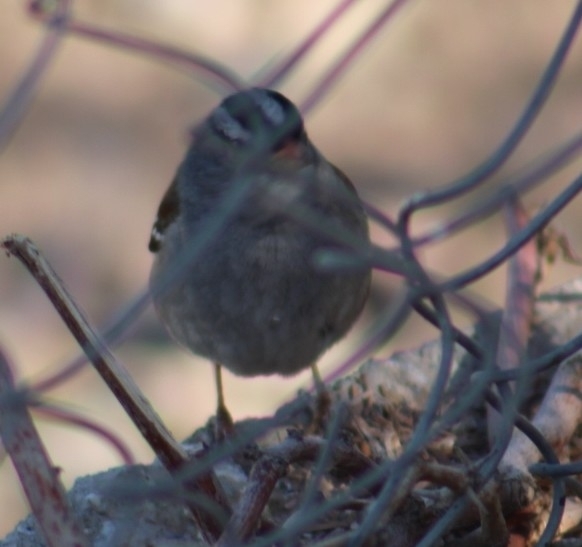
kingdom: Animalia
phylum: Chordata
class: Aves
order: Passeriformes
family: Passerellidae
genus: Zonotrichia
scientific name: Zonotrichia leucophrys
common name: White-crowned sparrow
